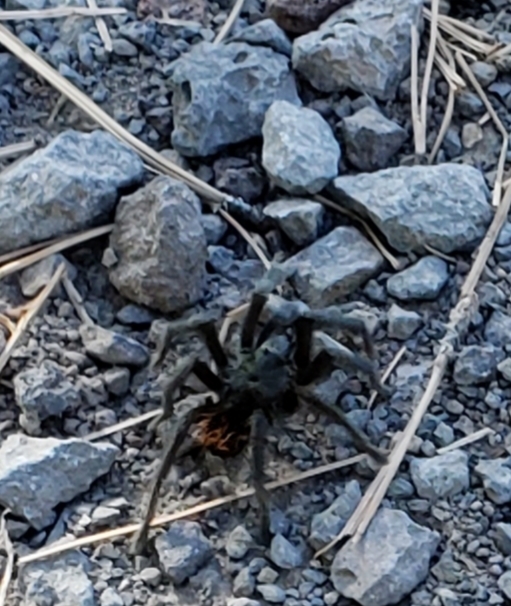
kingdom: Animalia
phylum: Arthropoda
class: Arachnida
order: Araneae
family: Theraphosidae
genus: Aphonopelma
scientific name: Aphonopelma marxi
